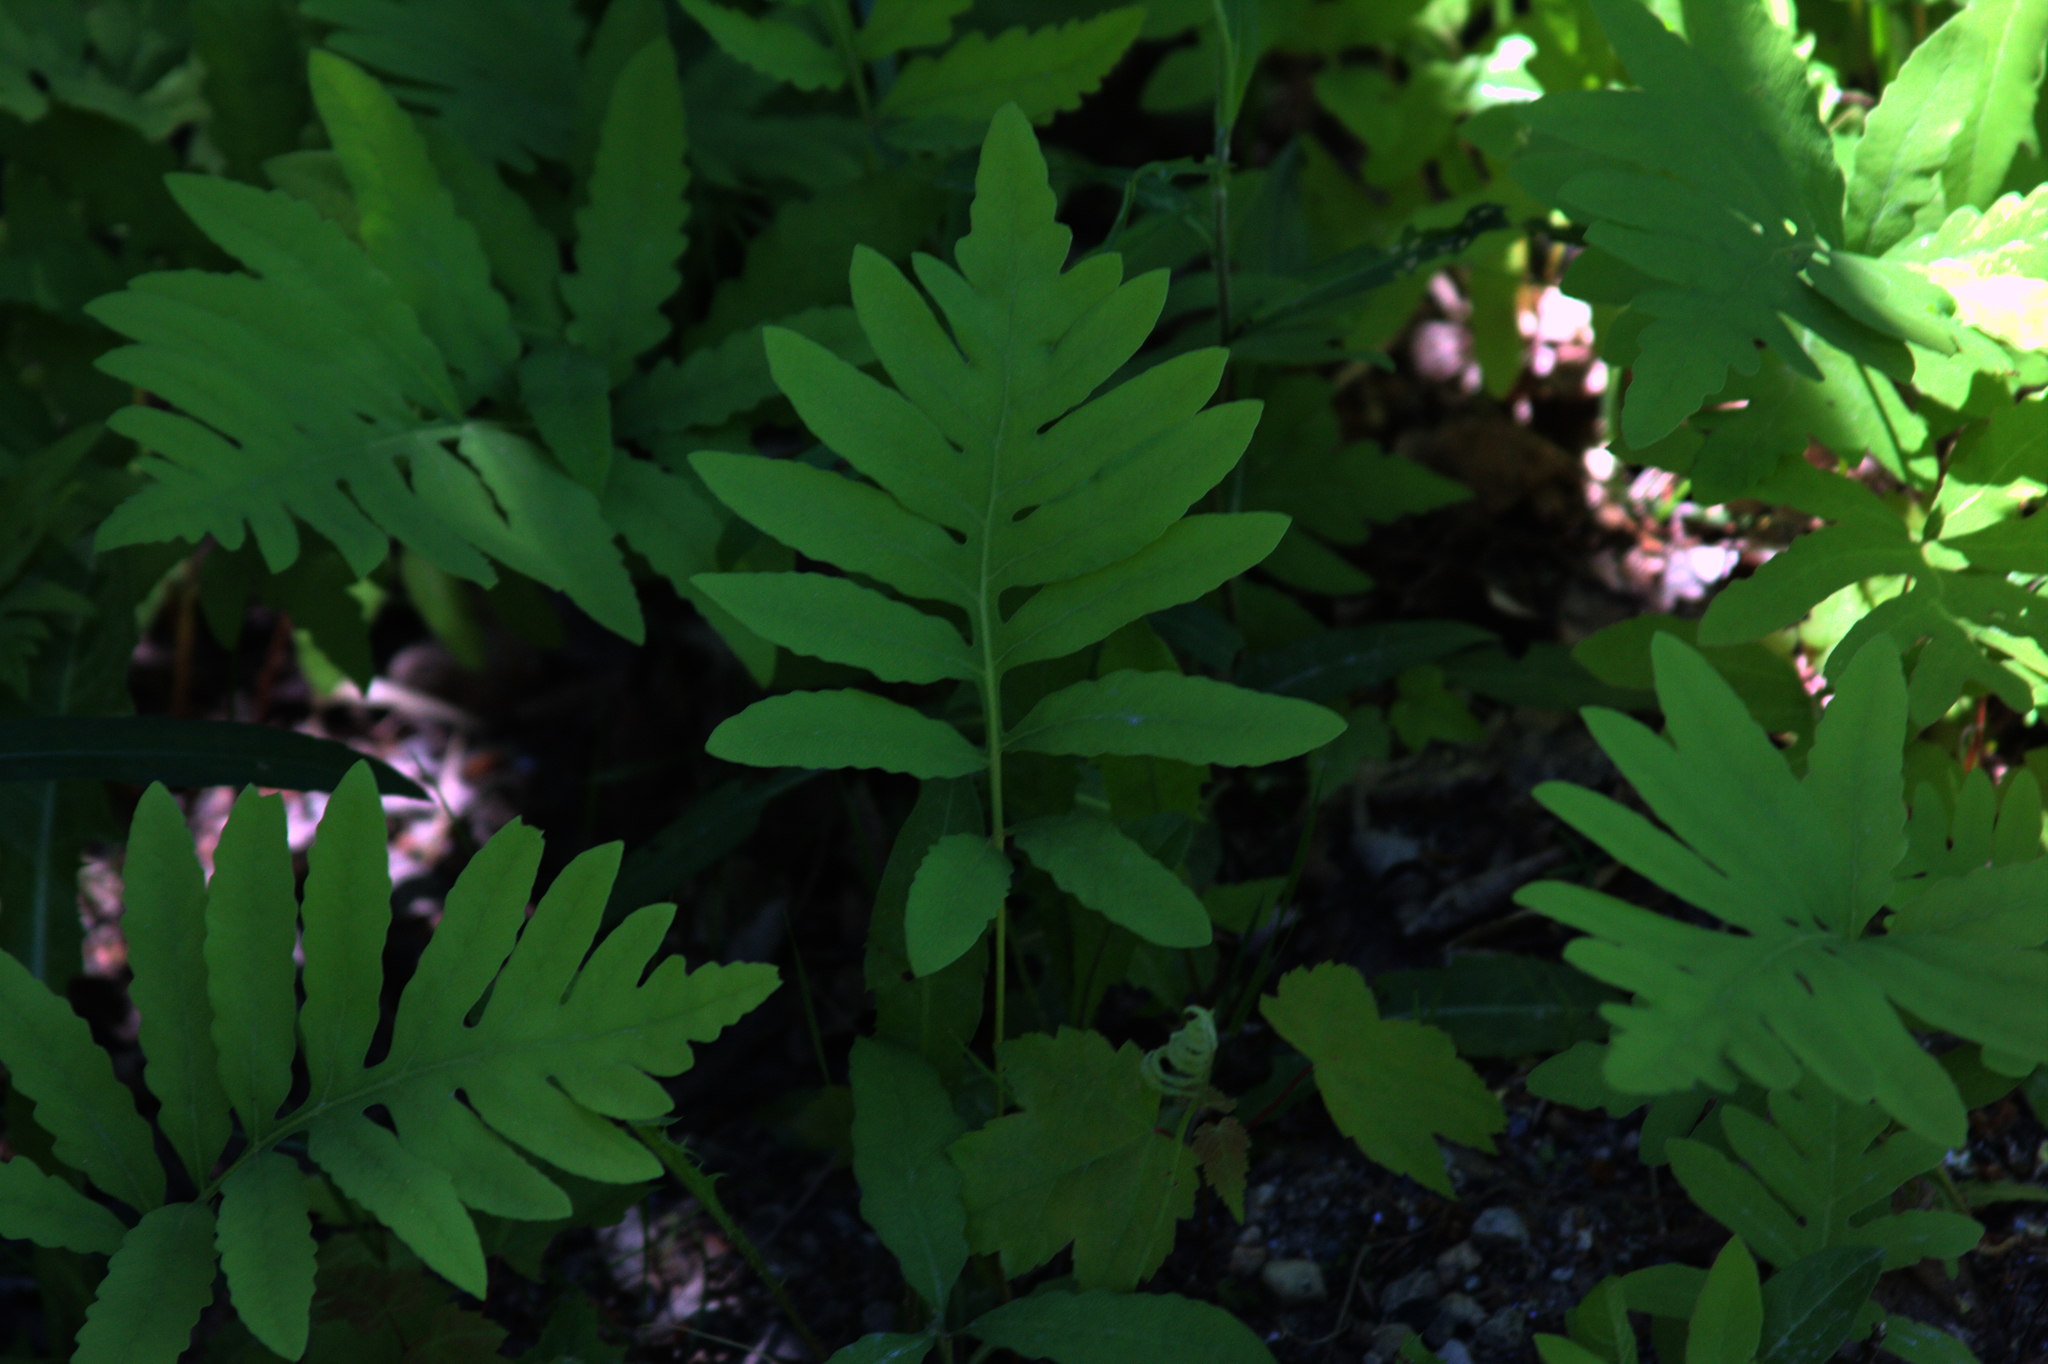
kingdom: Plantae
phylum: Tracheophyta
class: Polypodiopsida
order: Polypodiales
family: Onocleaceae
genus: Onoclea
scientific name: Onoclea sensibilis
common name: Sensitive fern
